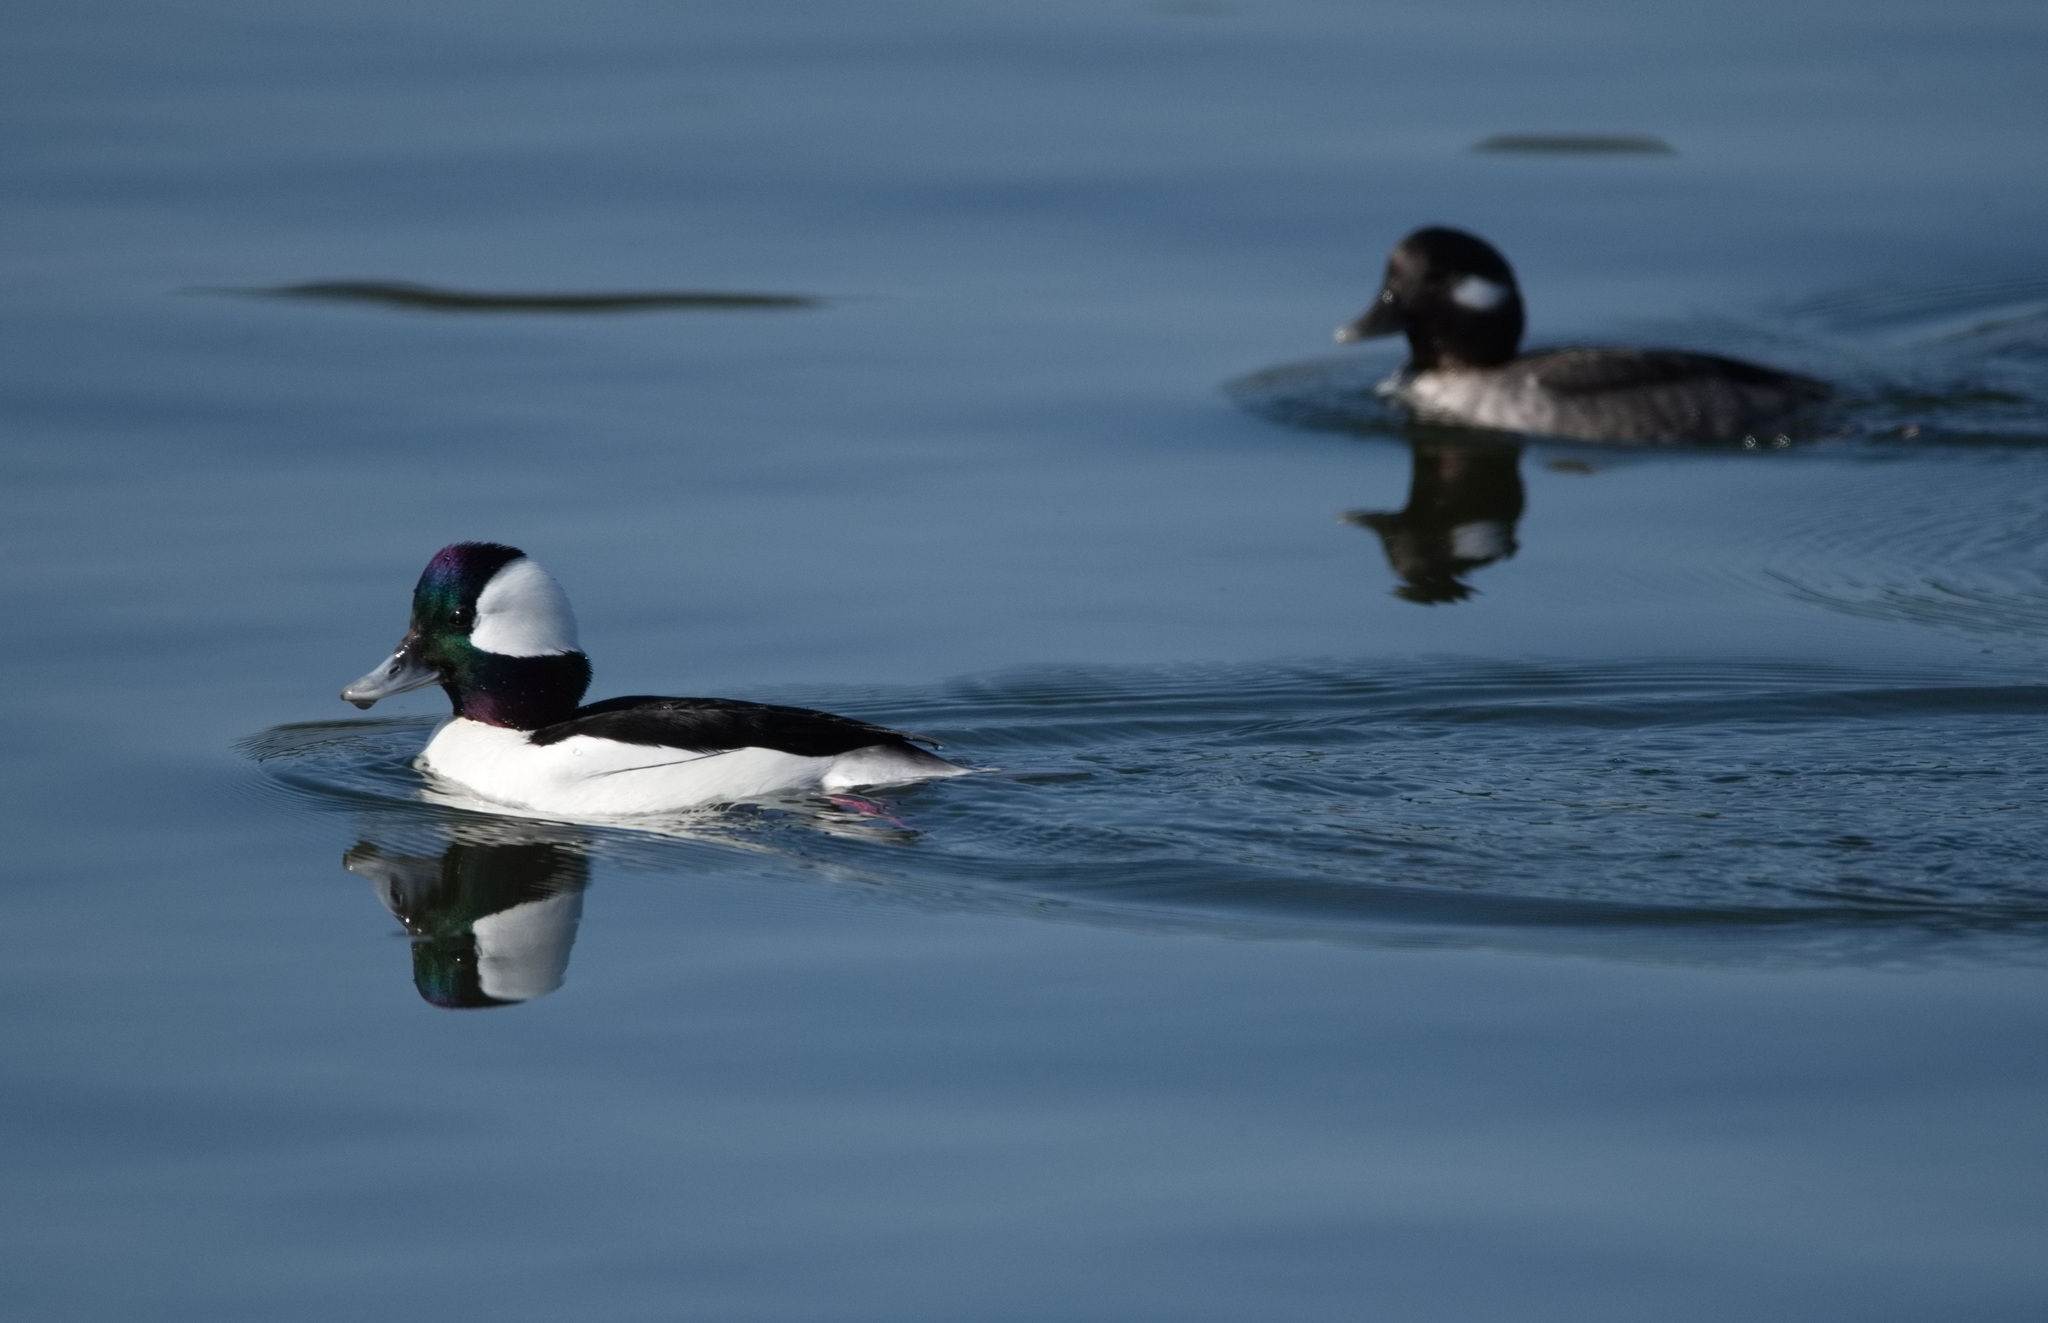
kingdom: Animalia
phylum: Chordata
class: Aves
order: Anseriformes
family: Anatidae
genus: Bucephala
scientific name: Bucephala albeola
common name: Bufflehead
